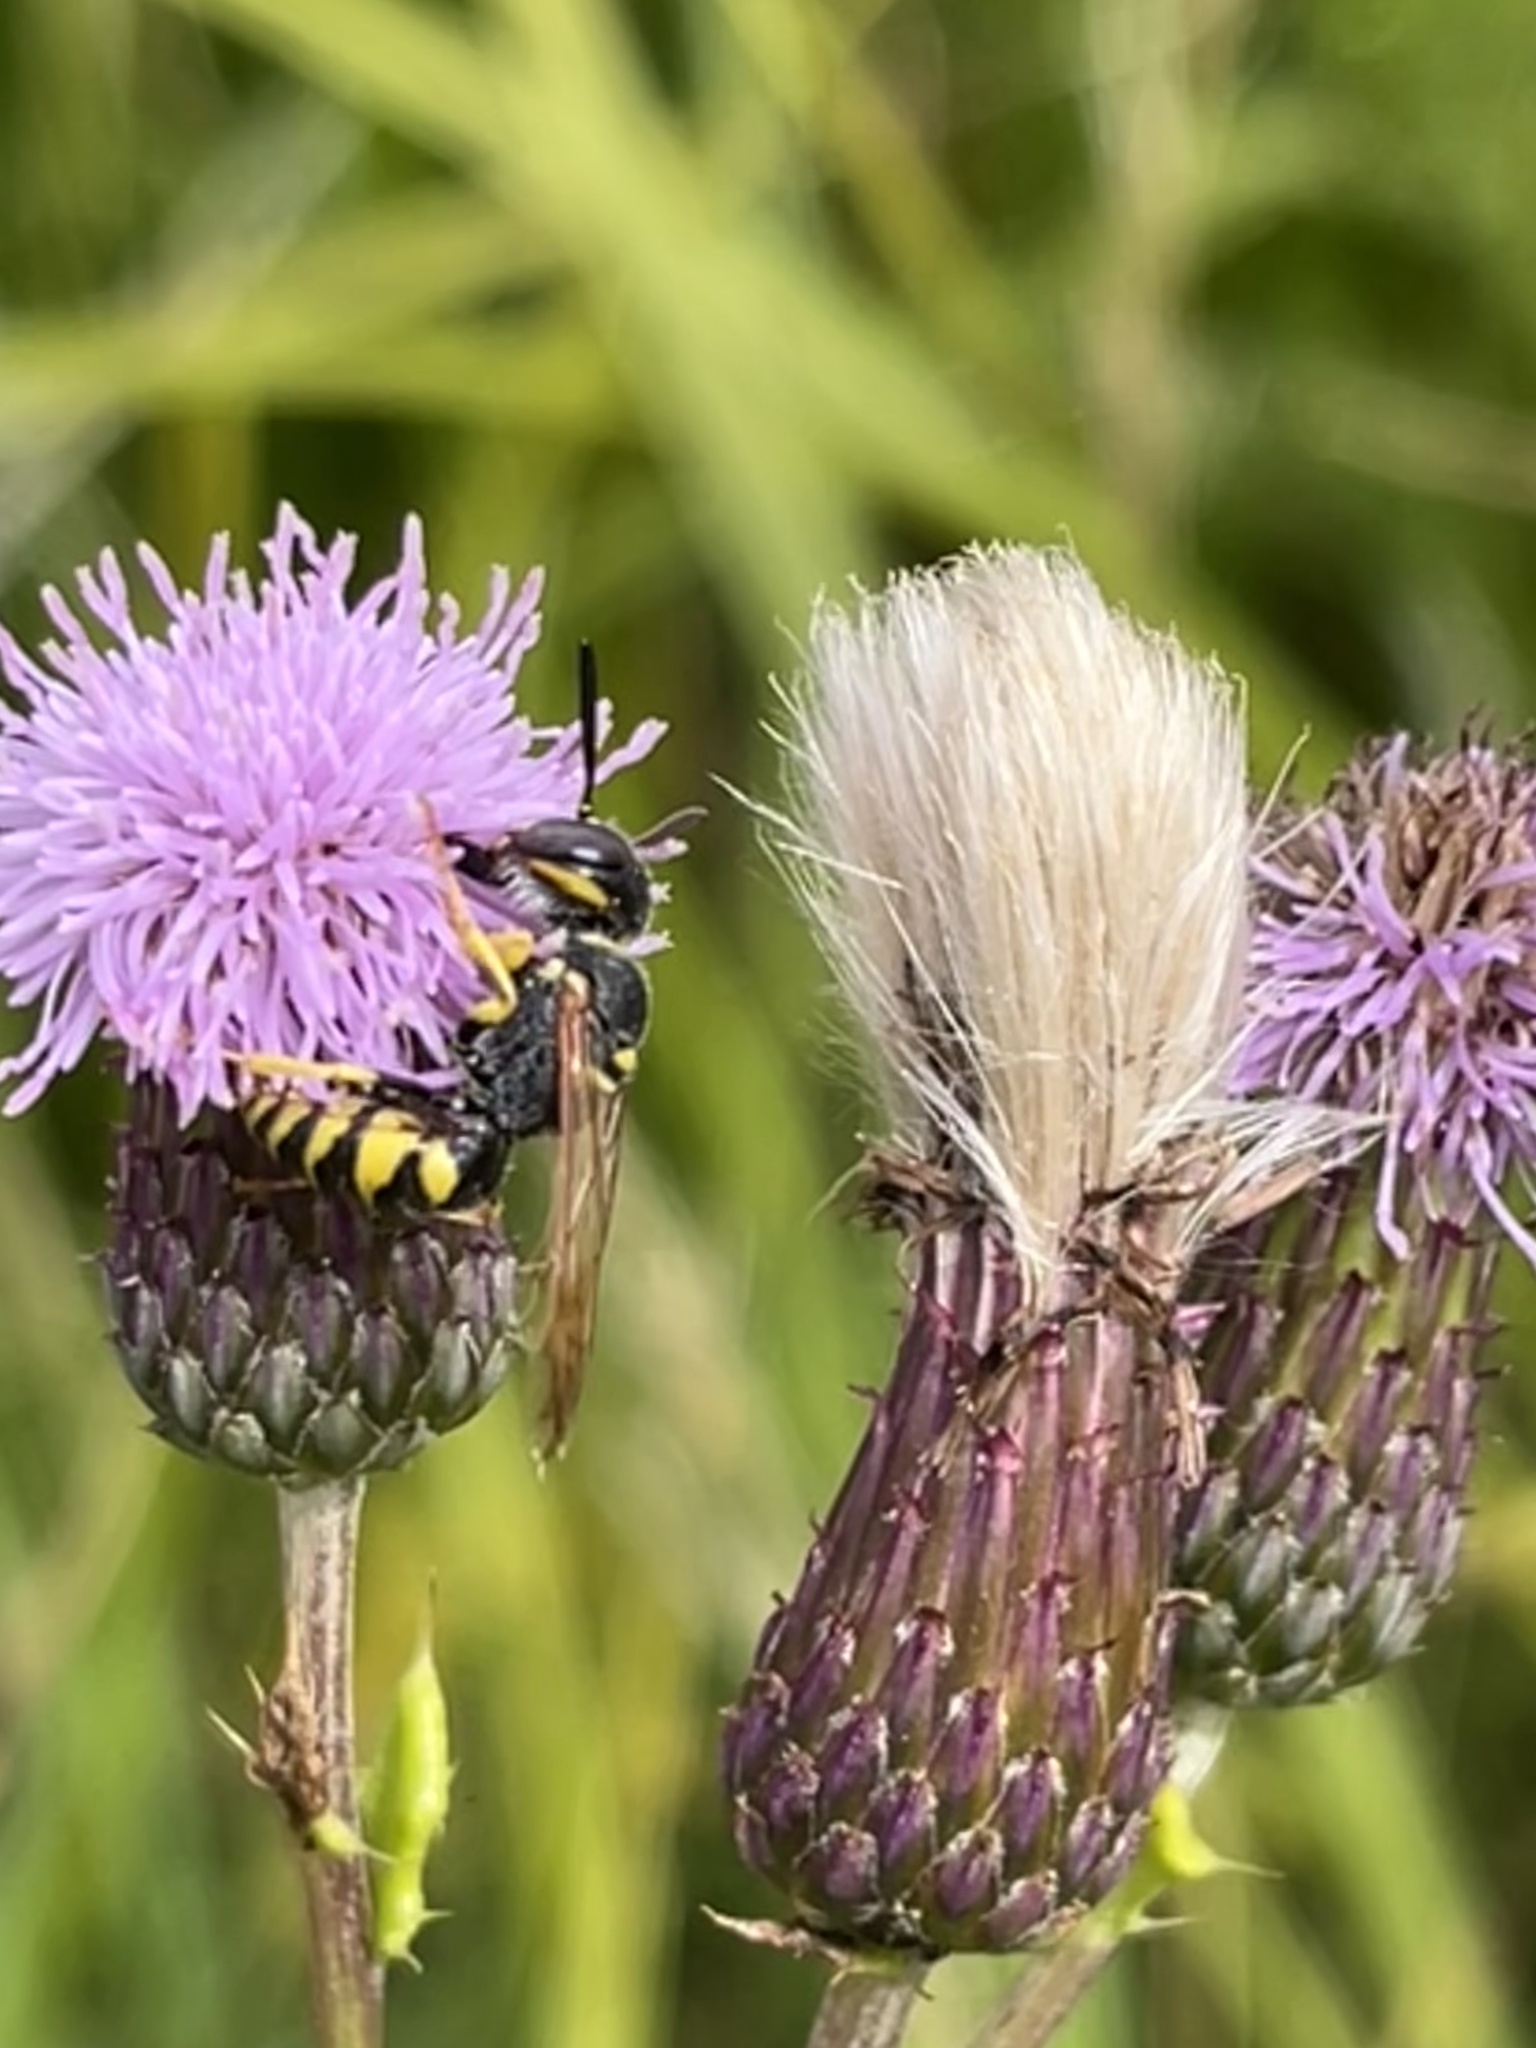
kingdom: Animalia
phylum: Arthropoda
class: Insecta
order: Hymenoptera
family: Crabronidae
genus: Philanthus
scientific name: Philanthus triangulum
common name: Bee wolf
